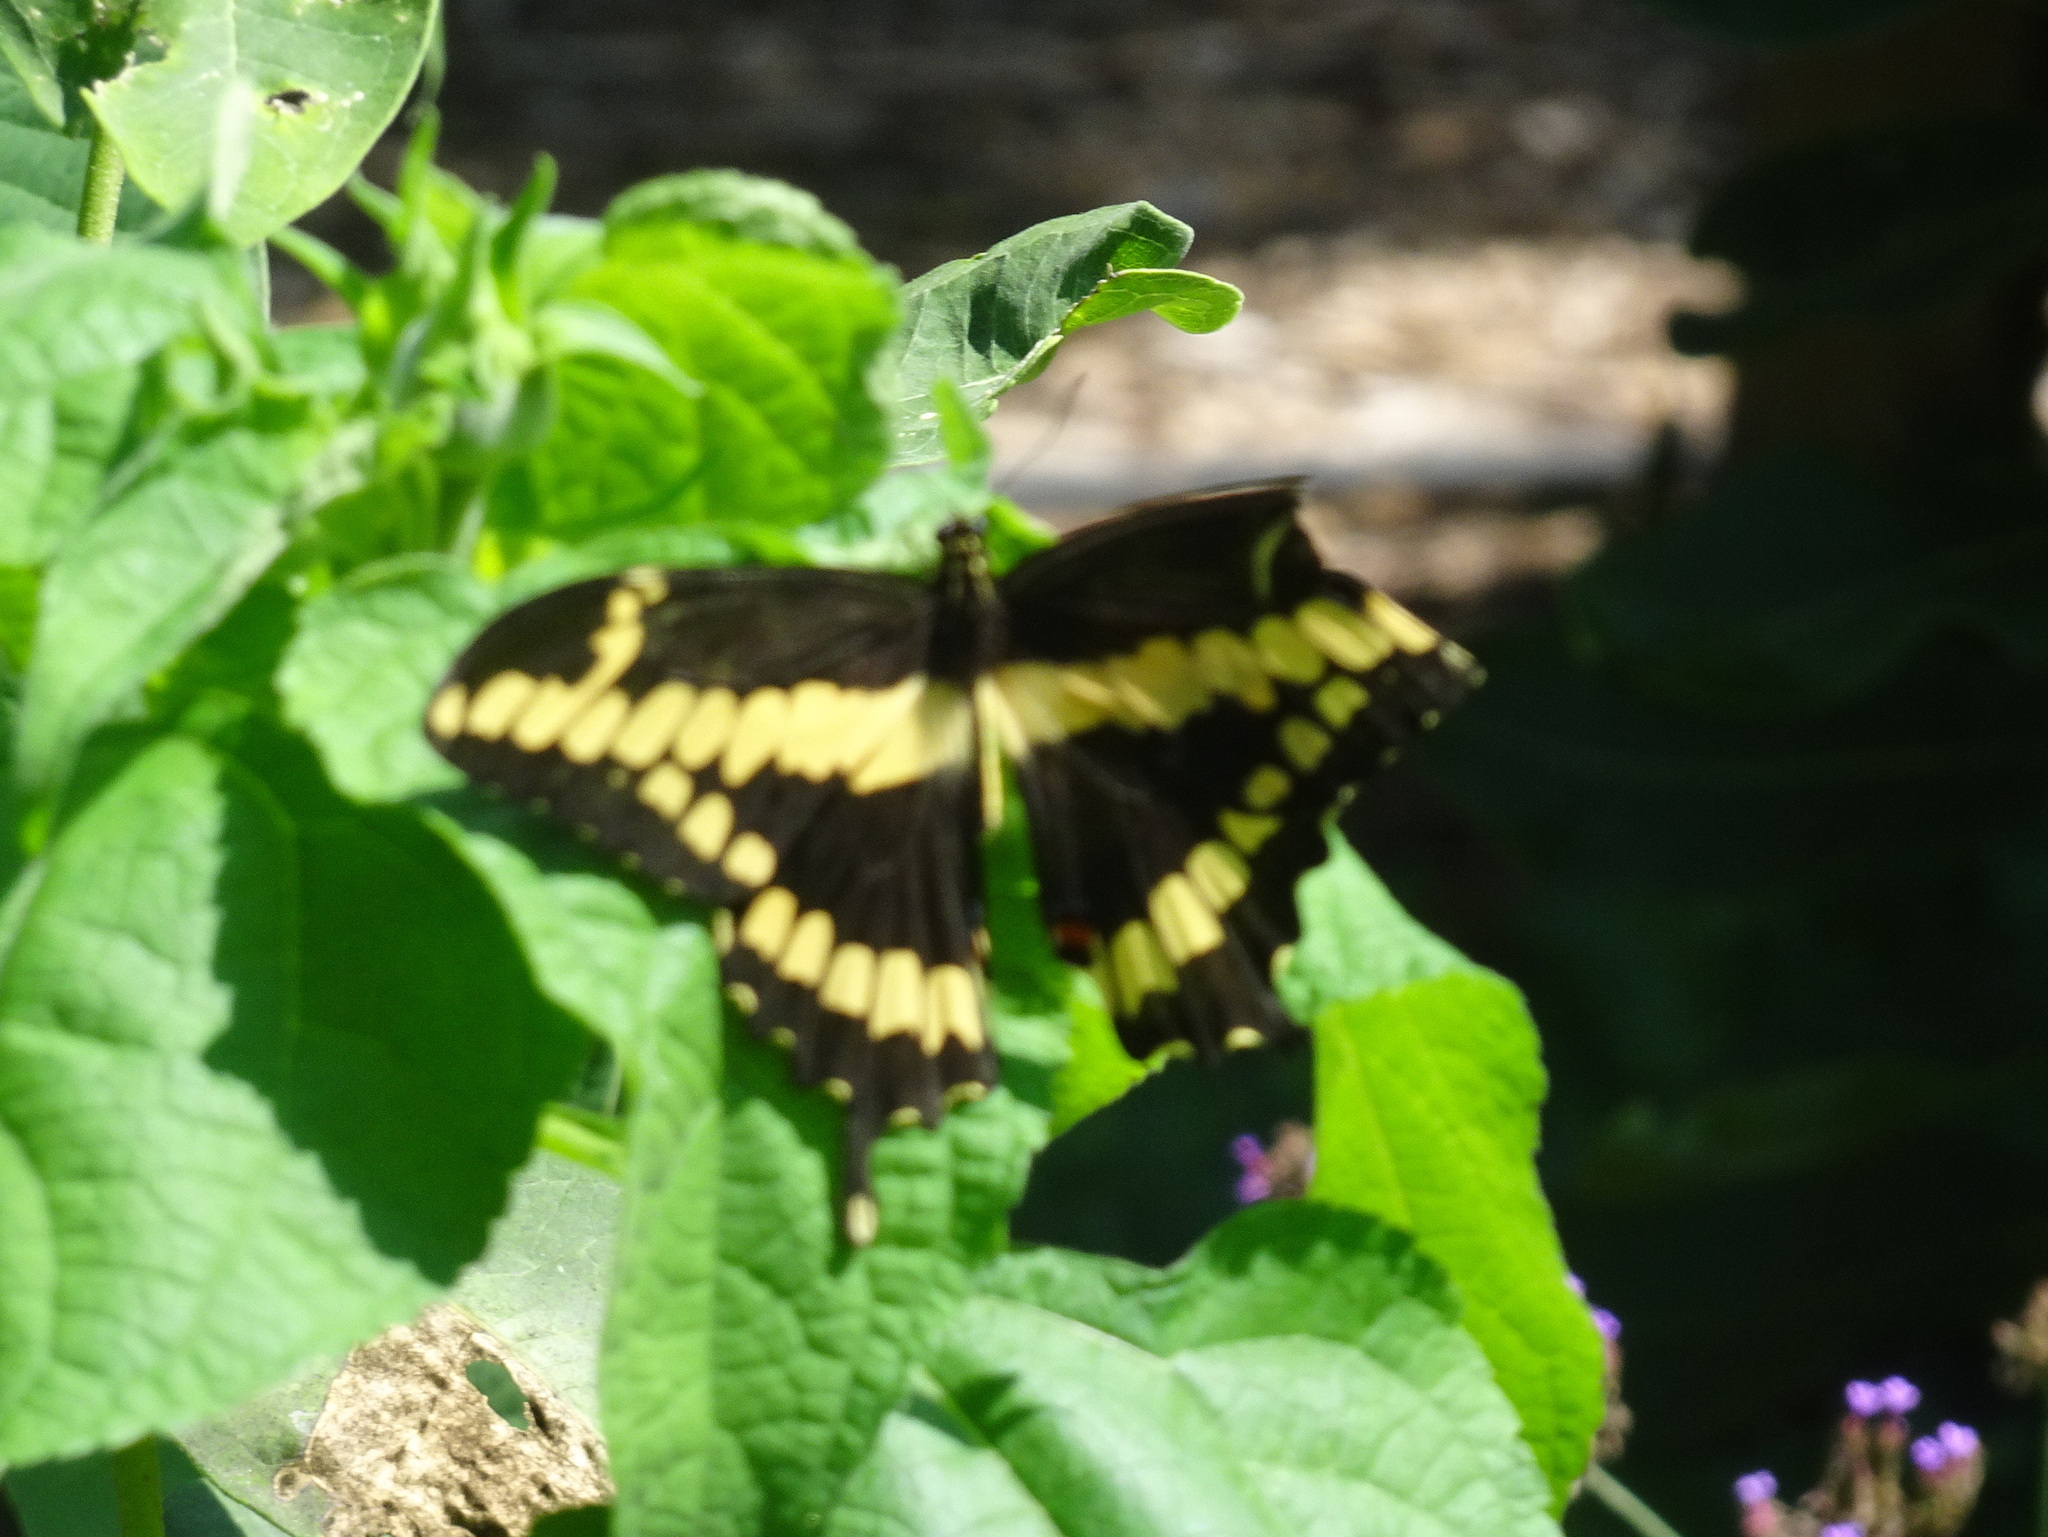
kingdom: Animalia
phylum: Arthropoda
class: Insecta
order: Lepidoptera
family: Papilionidae
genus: Papilio
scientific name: Papilio cresphontes
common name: Giant swallowtail
